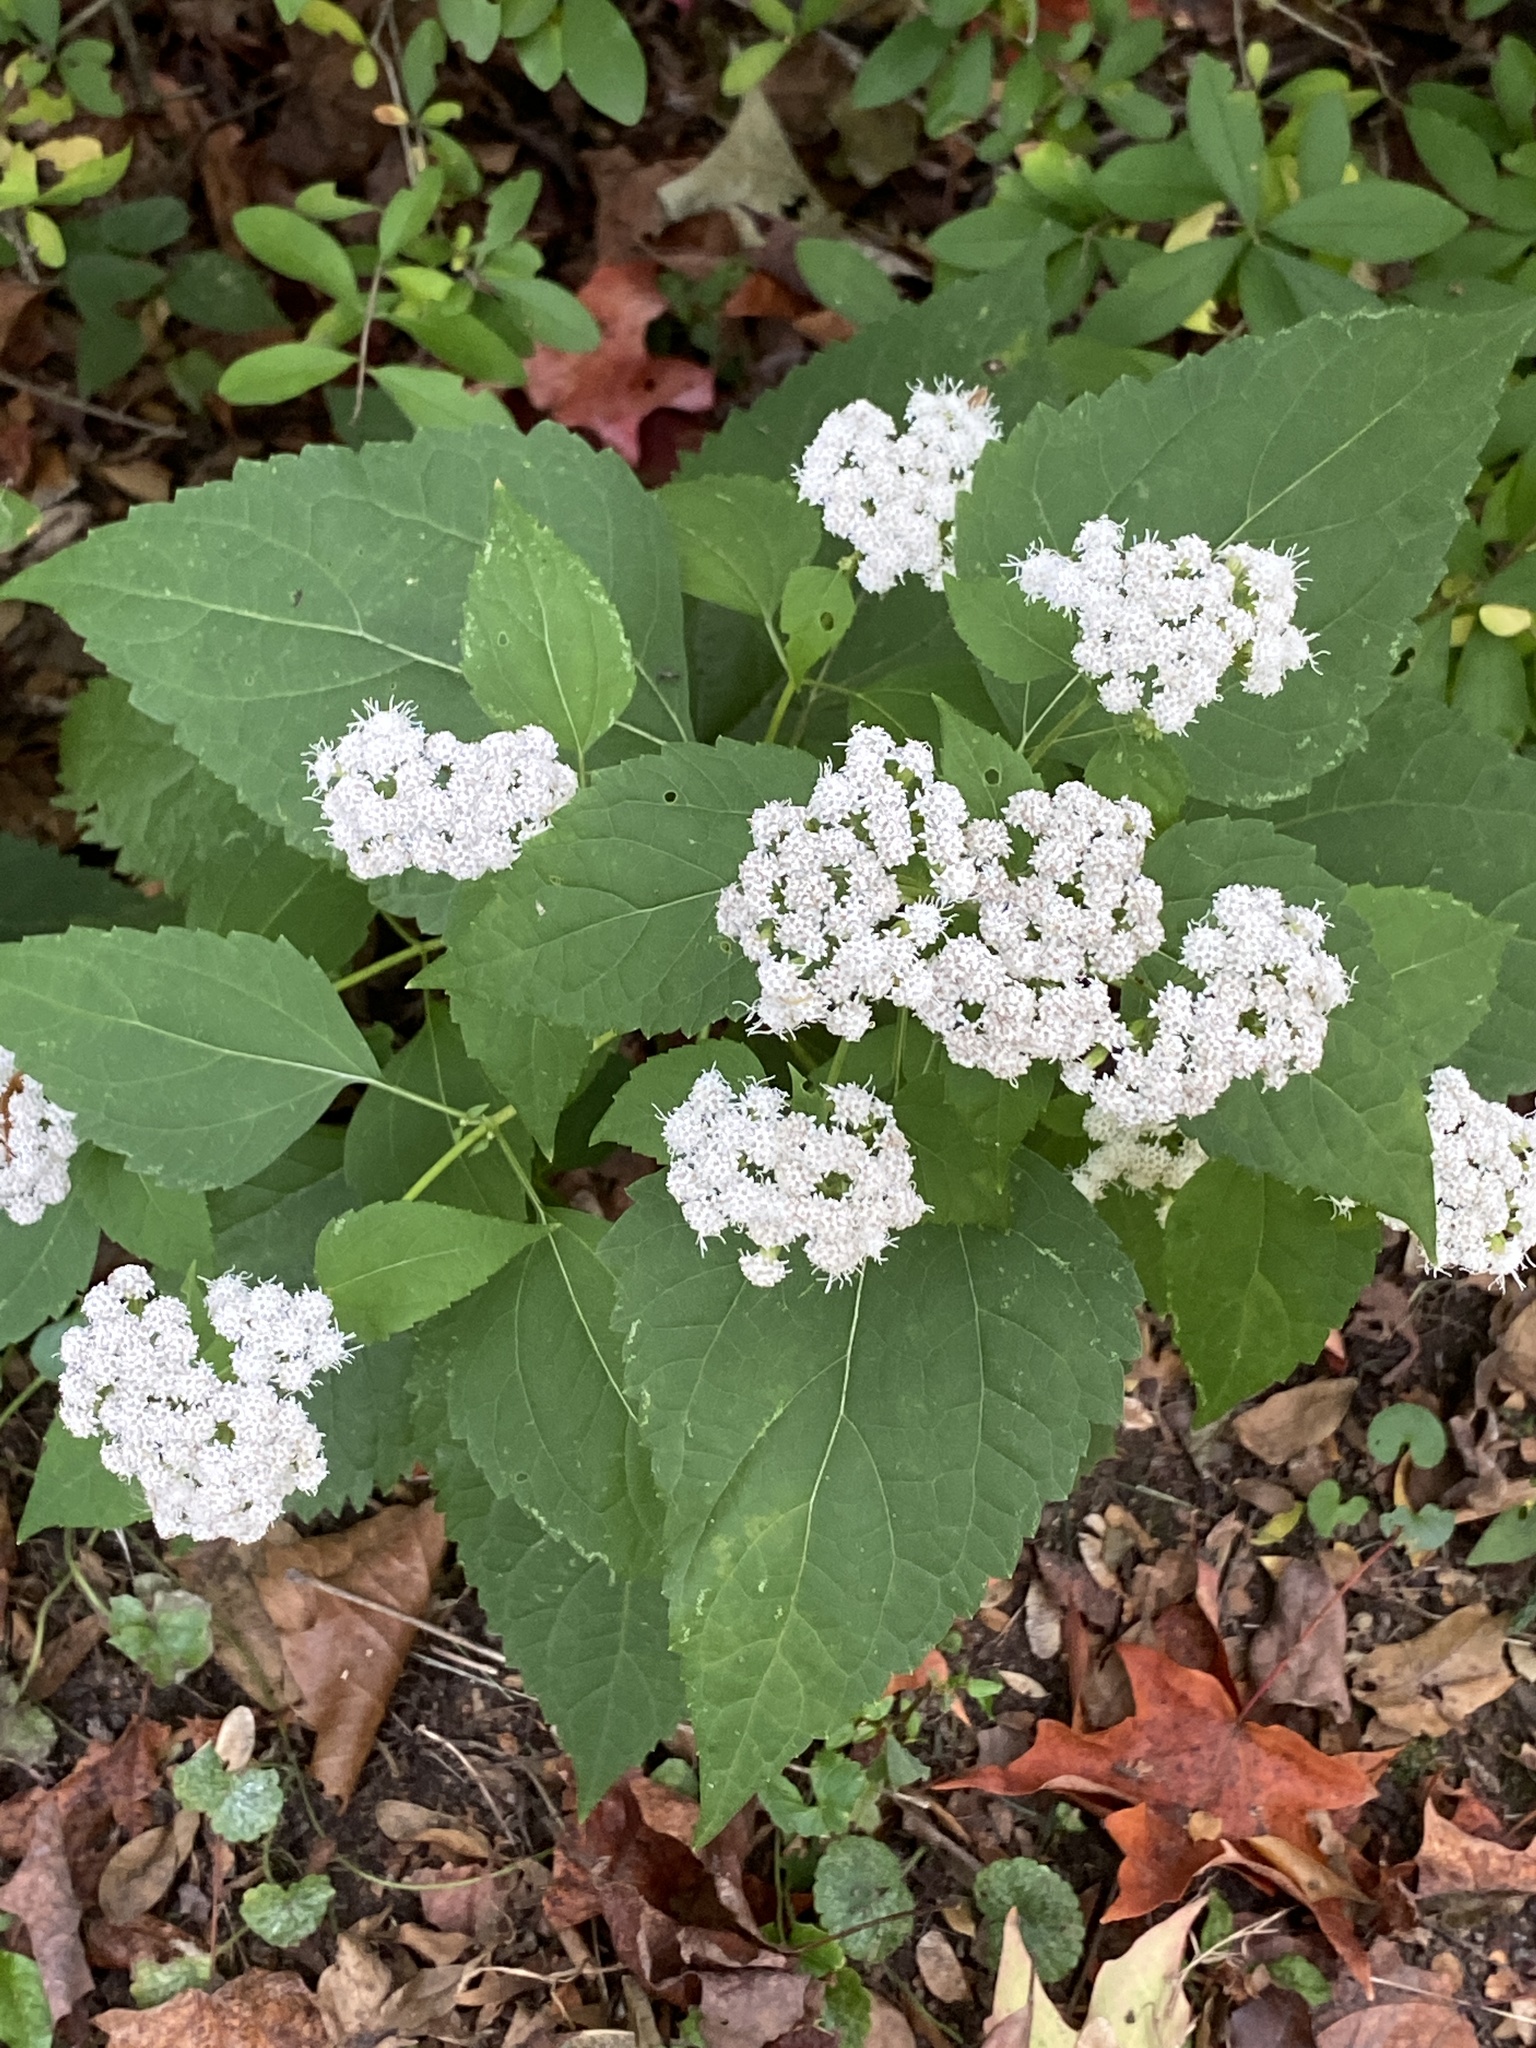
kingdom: Plantae
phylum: Tracheophyta
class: Magnoliopsida
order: Asterales
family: Asteraceae
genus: Ageratina
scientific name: Ageratina altissima
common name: White snakeroot
